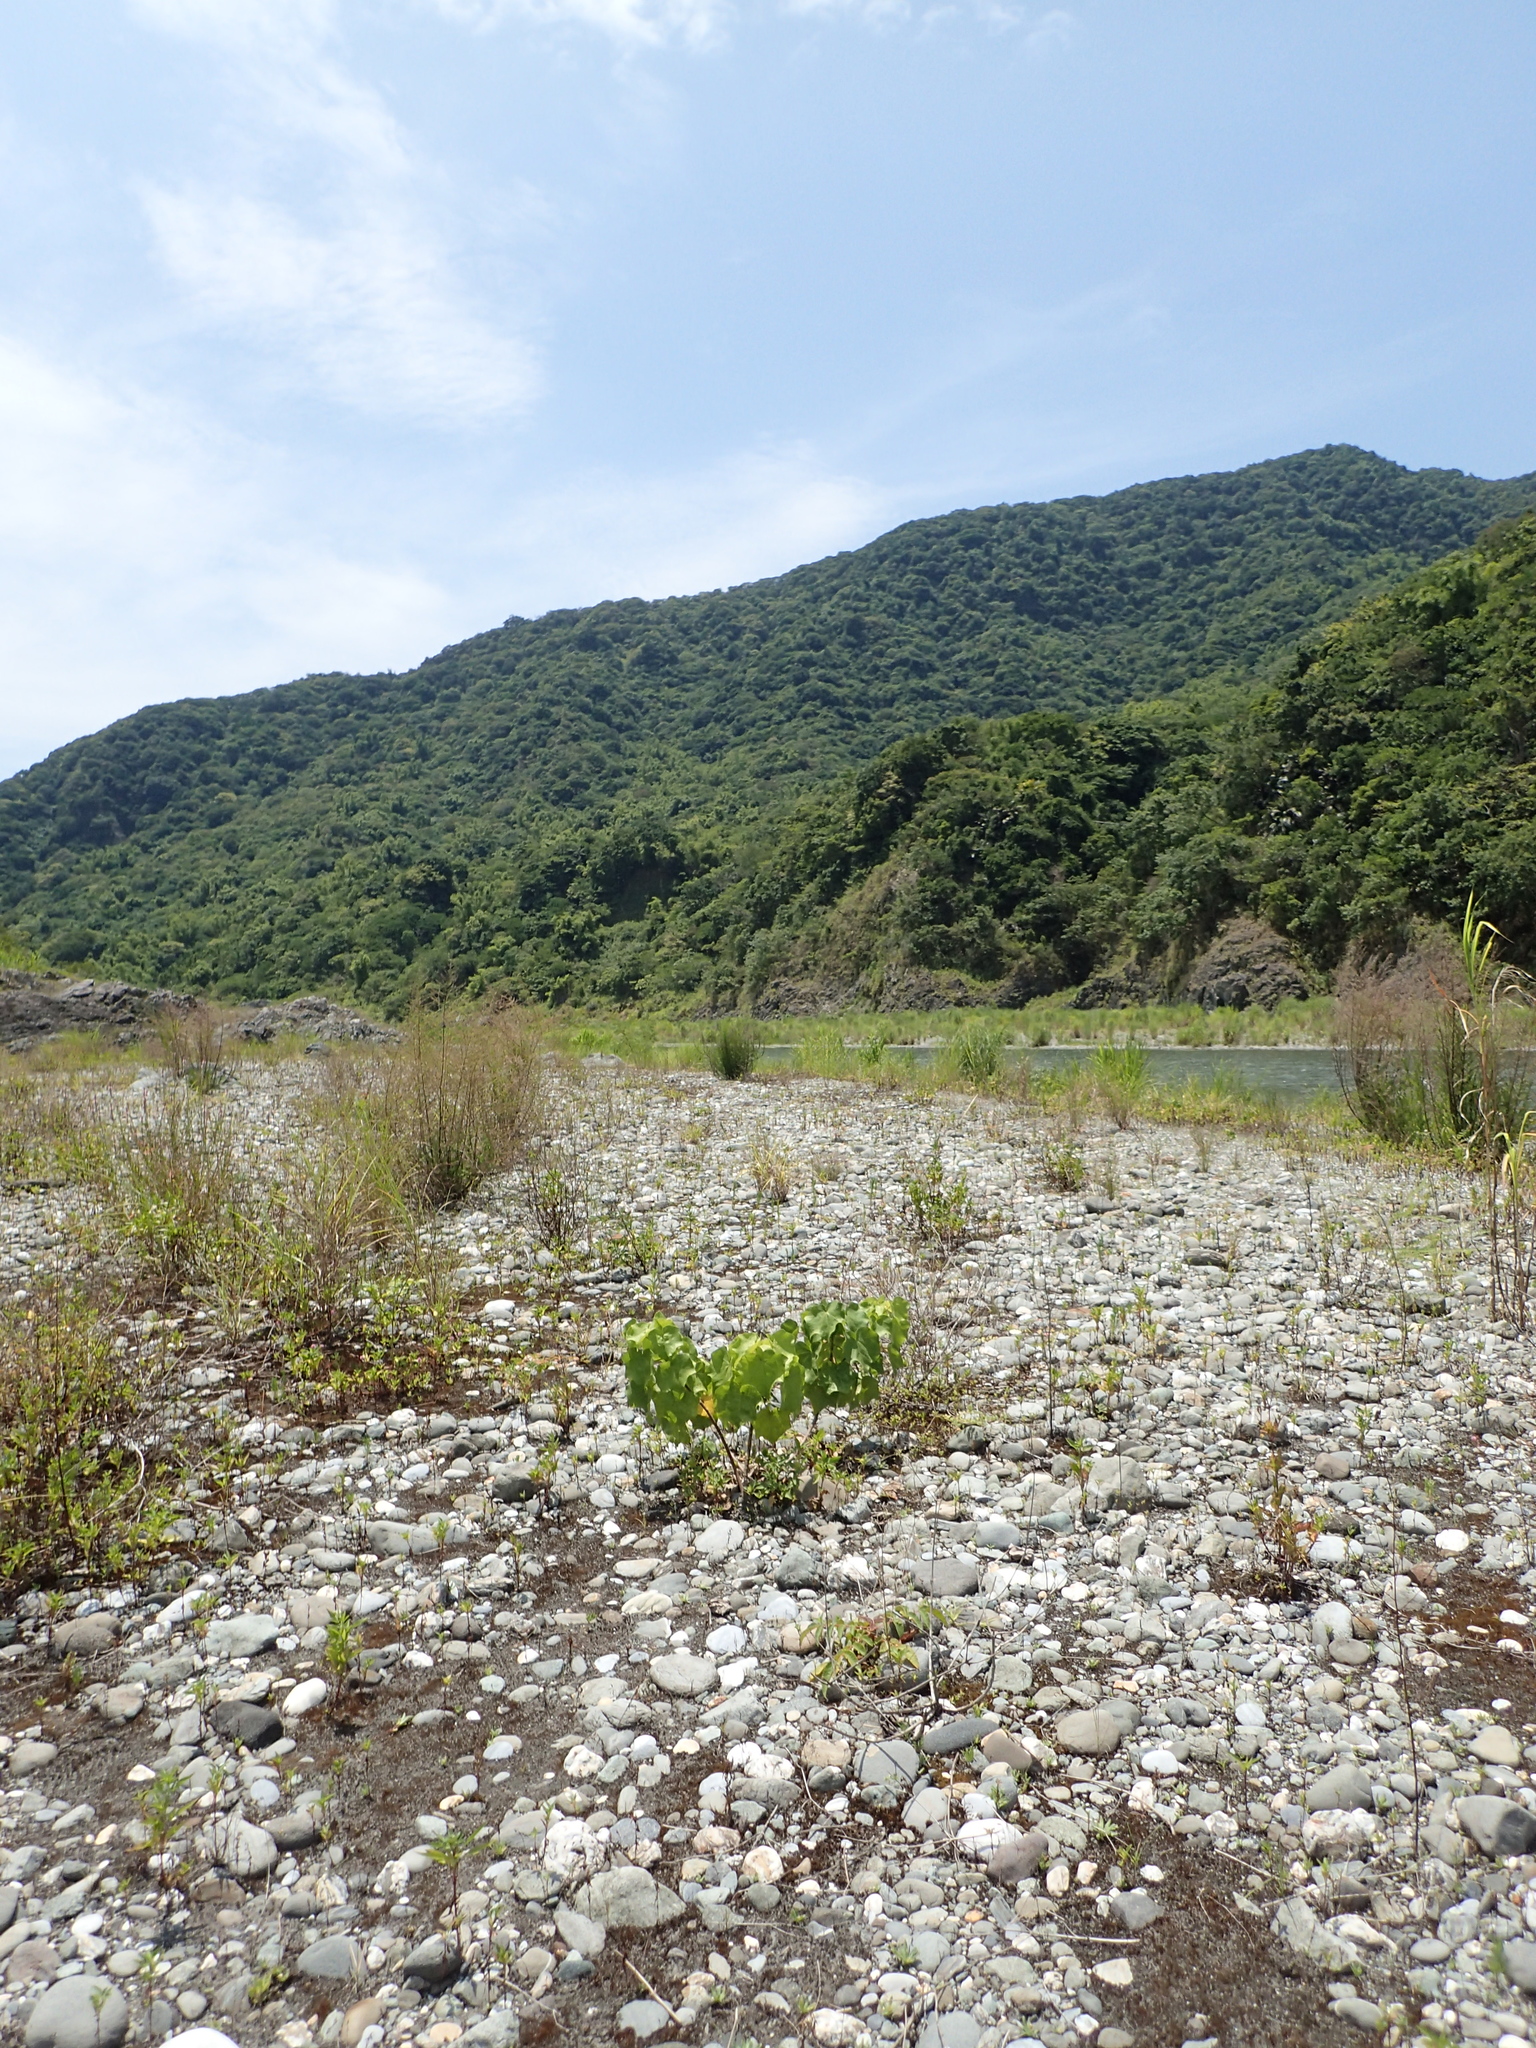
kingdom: Plantae
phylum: Tracheophyta
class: Magnoliopsida
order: Malvales
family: Malvaceae
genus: Hibiscus
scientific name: Hibiscus makinoi
